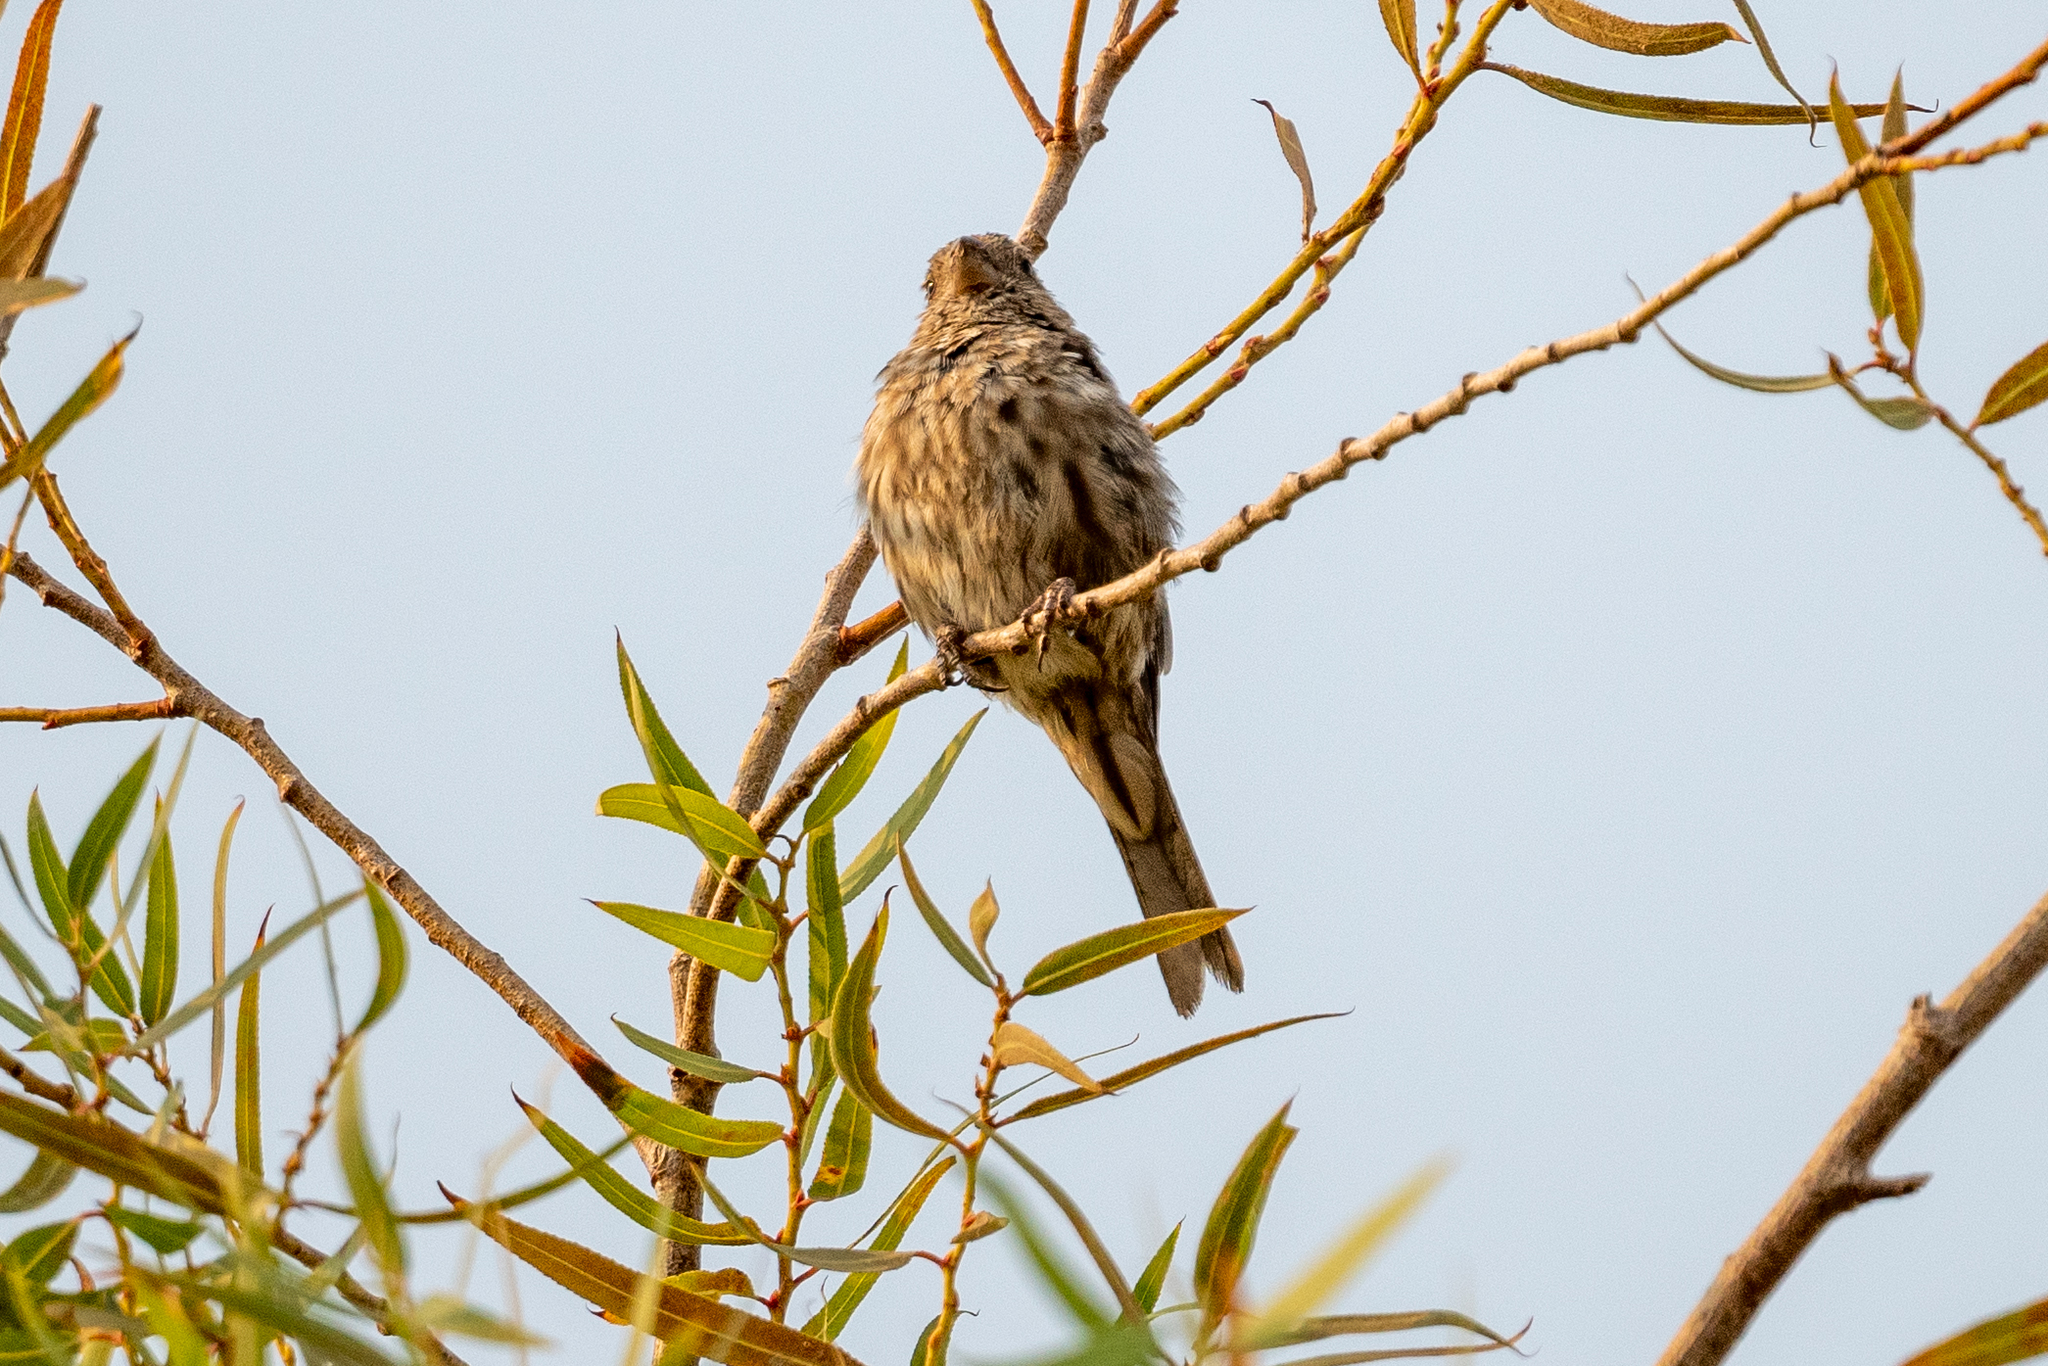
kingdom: Animalia
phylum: Chordata
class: Aves
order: Passeriformes
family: Fringillidae
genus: Haemorhous
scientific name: Haemorhous mexicanus
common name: House finch
